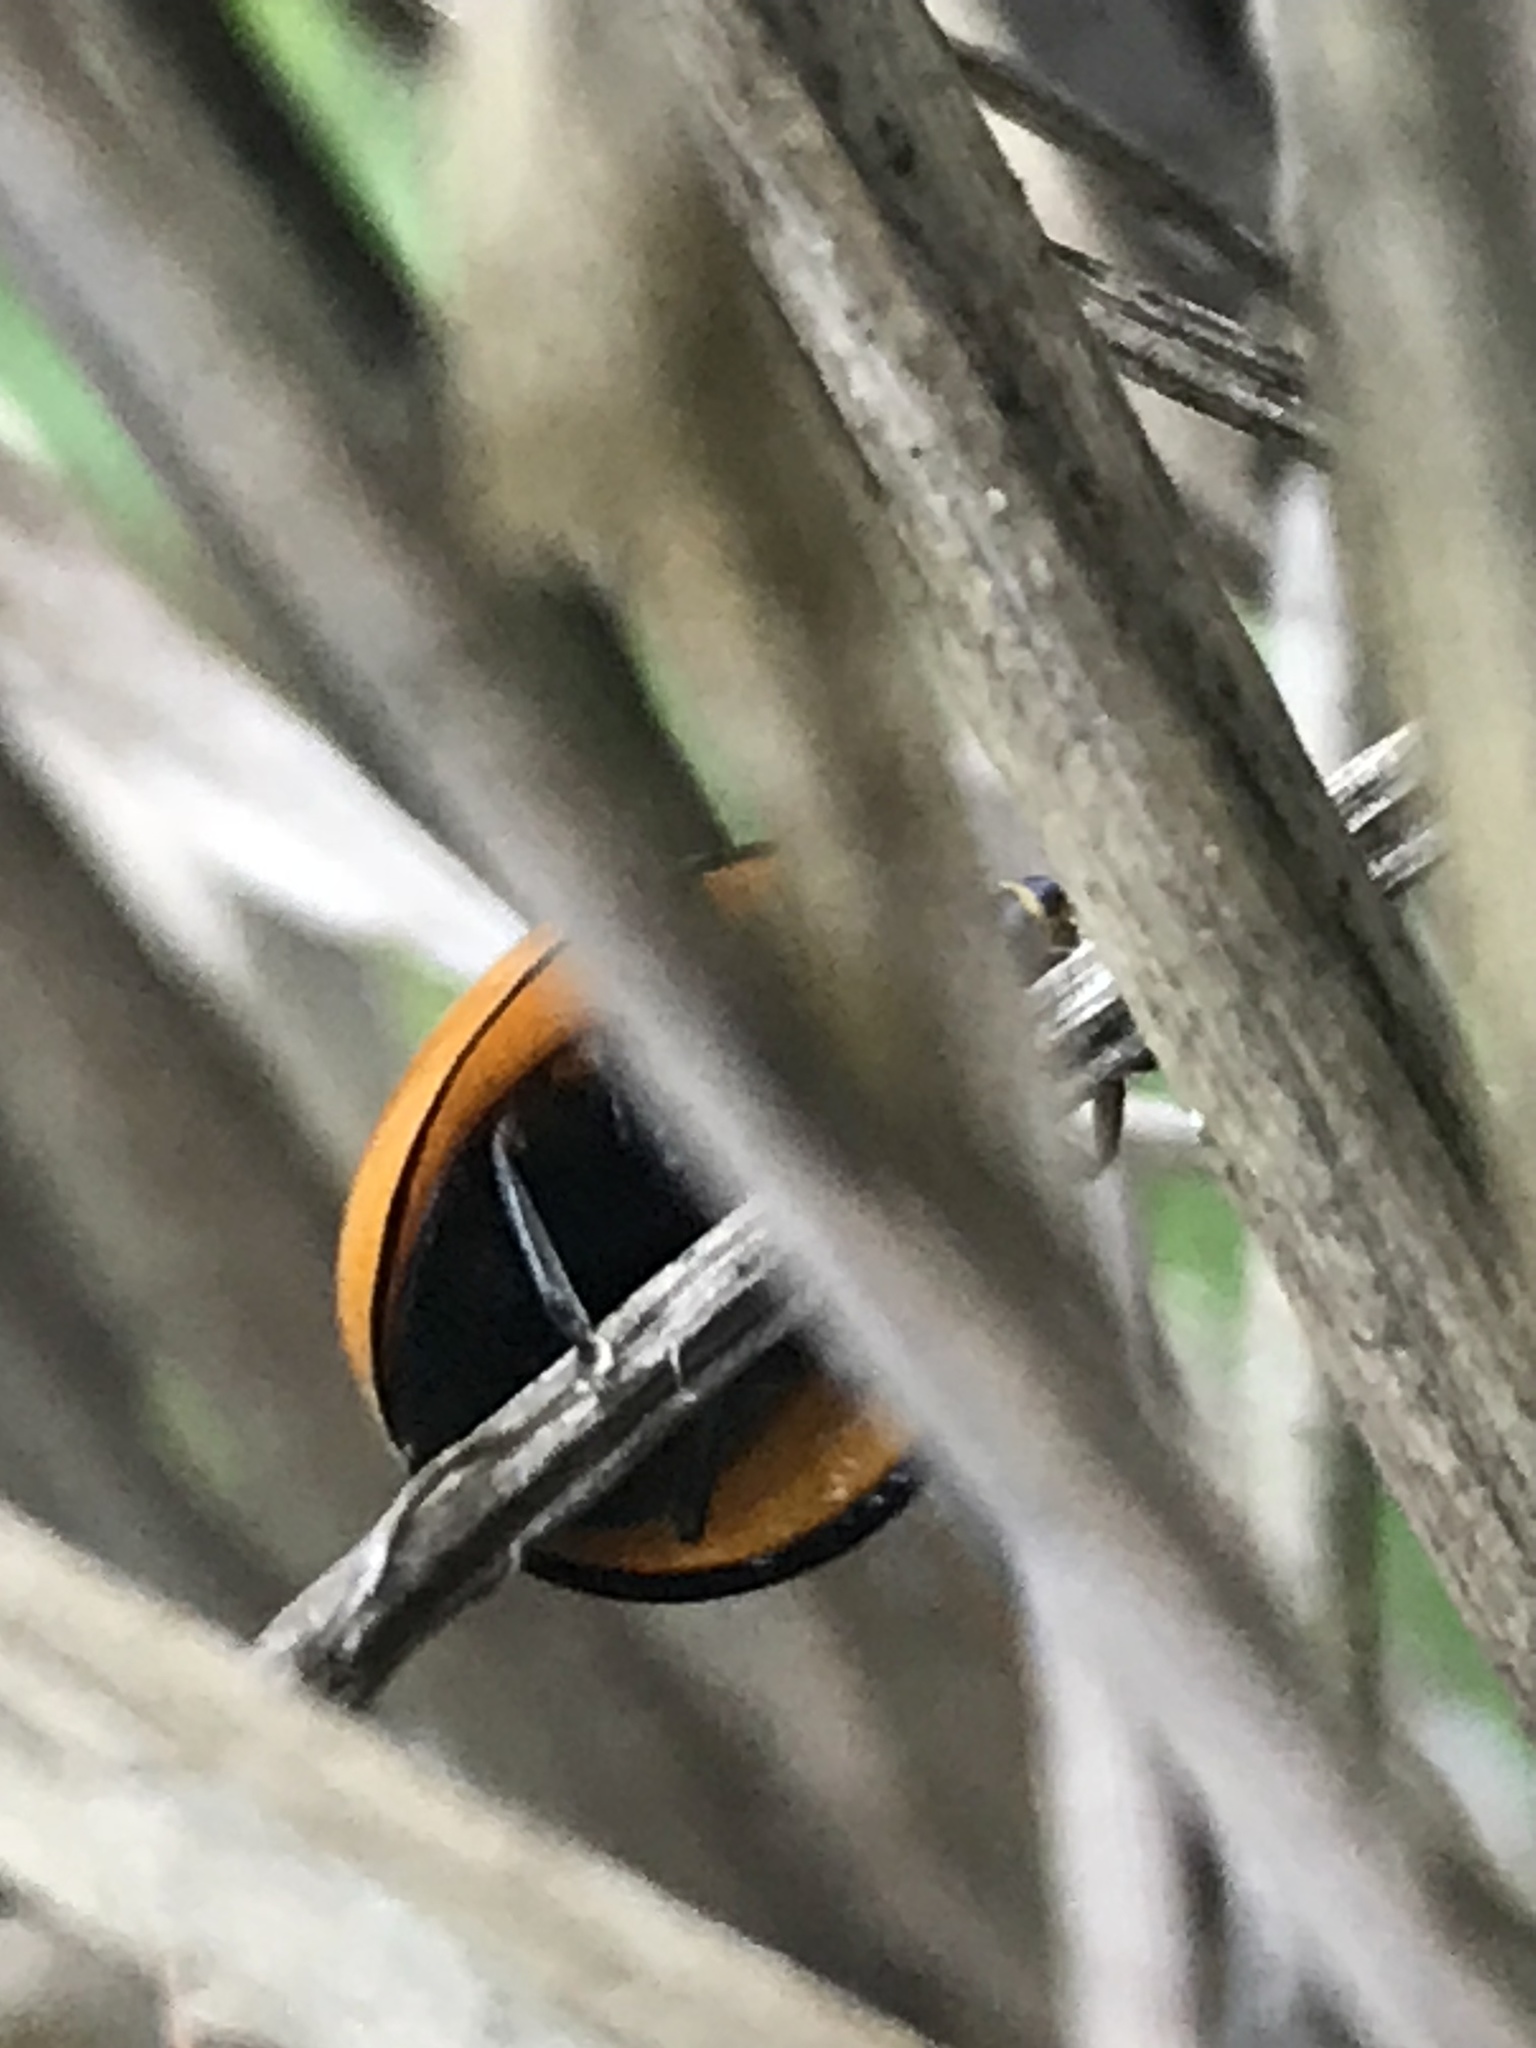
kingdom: Animalia
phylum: Arthropoda
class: Insecta
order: Coleoptera
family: Coccinellidae
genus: Neda
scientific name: Neda
